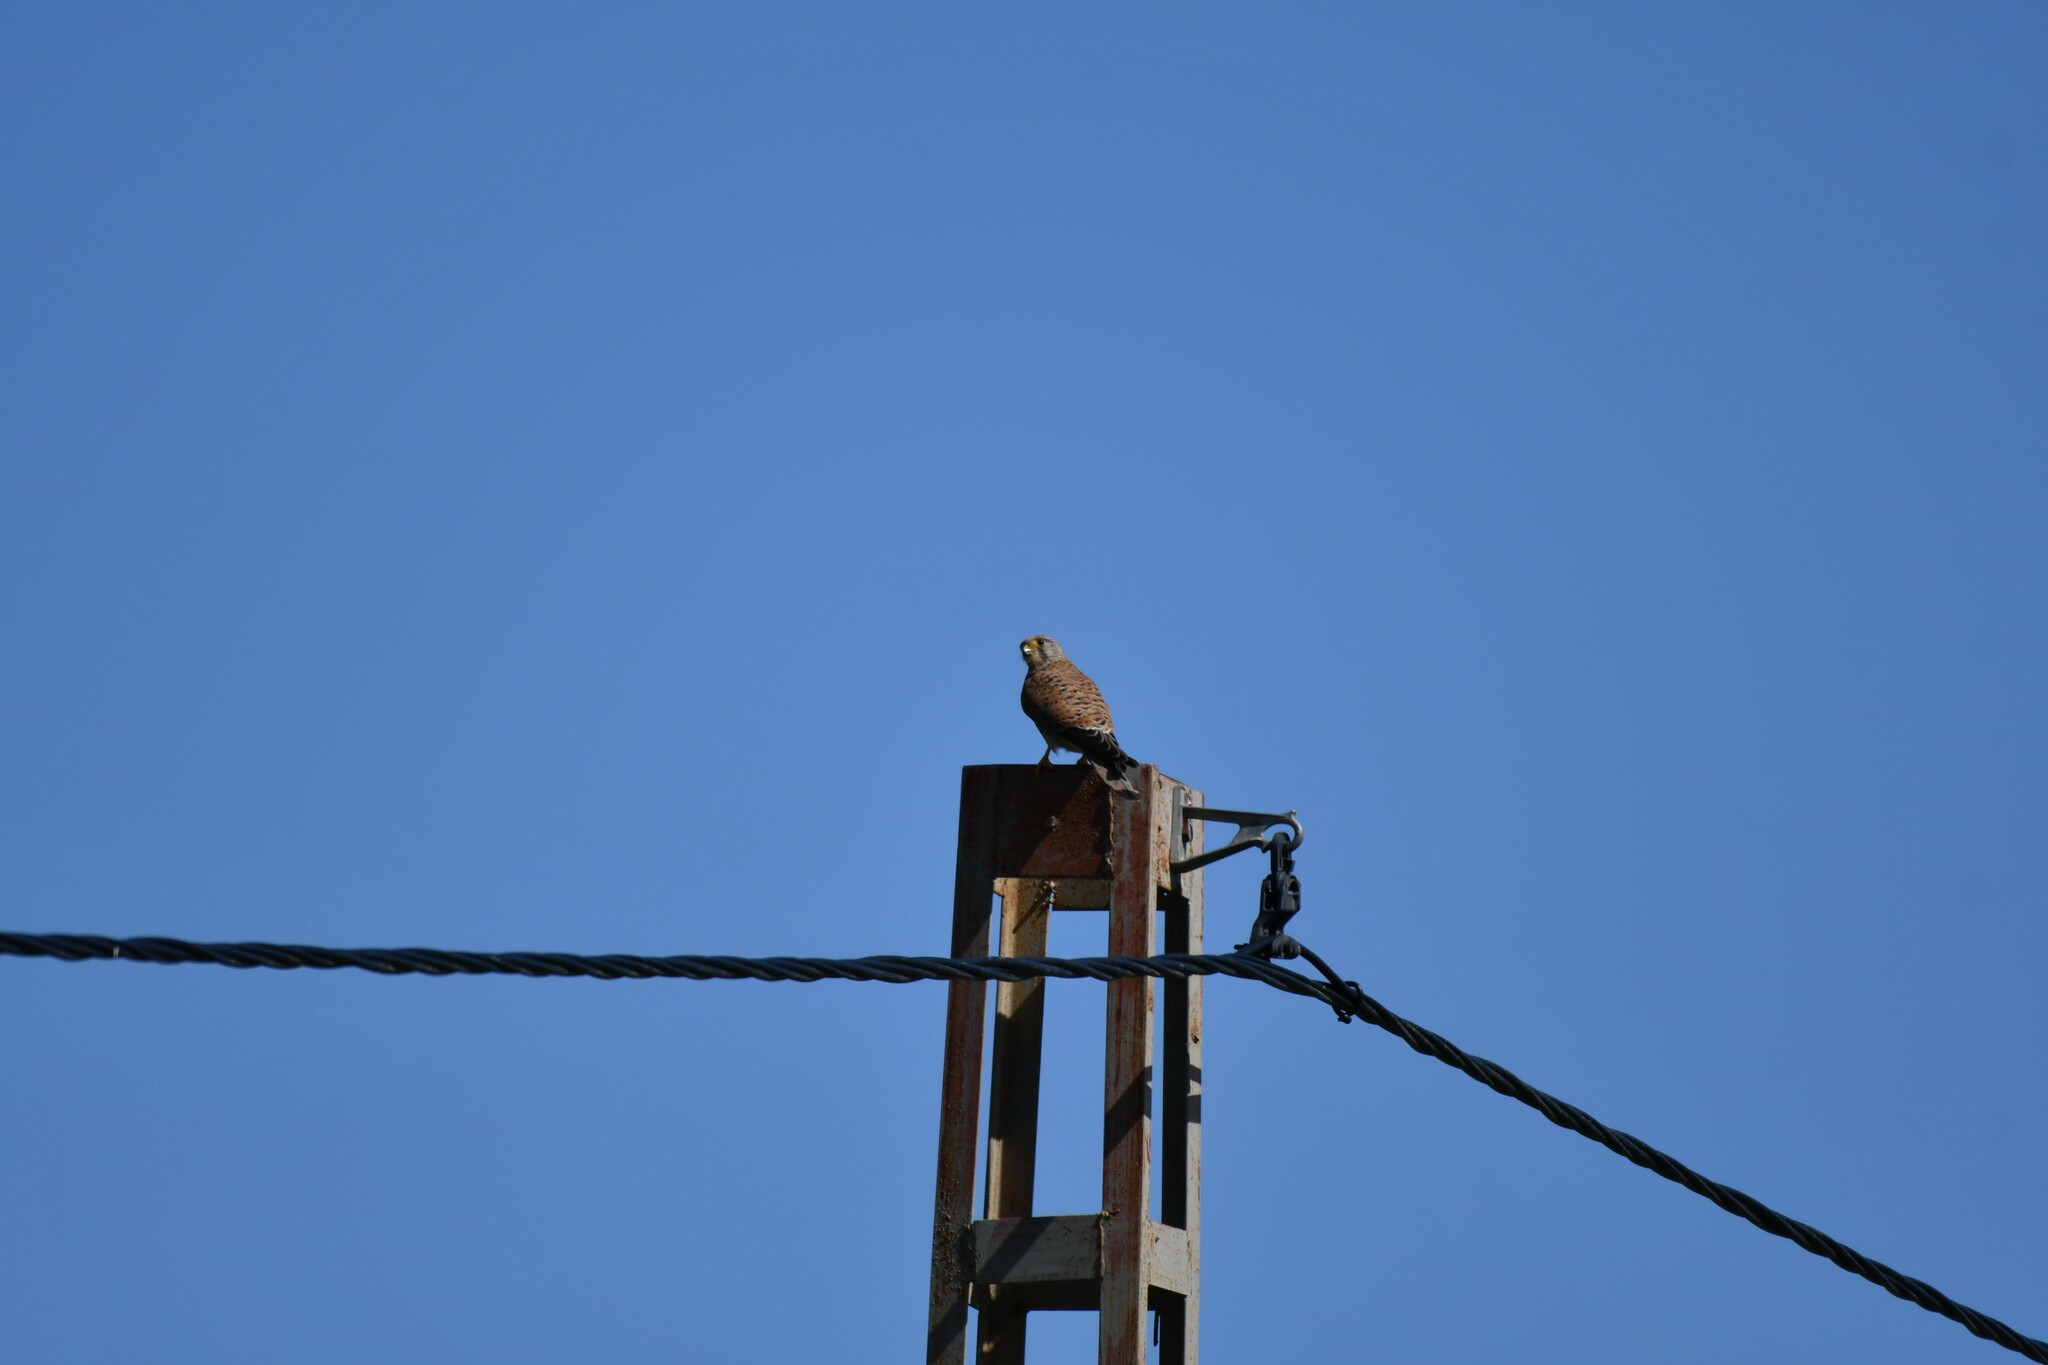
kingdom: Animalia
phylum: Chordata
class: Aves
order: Falconiformes
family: Falconidae
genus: Falco
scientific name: Falco tinnunculus
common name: Common kestrel
